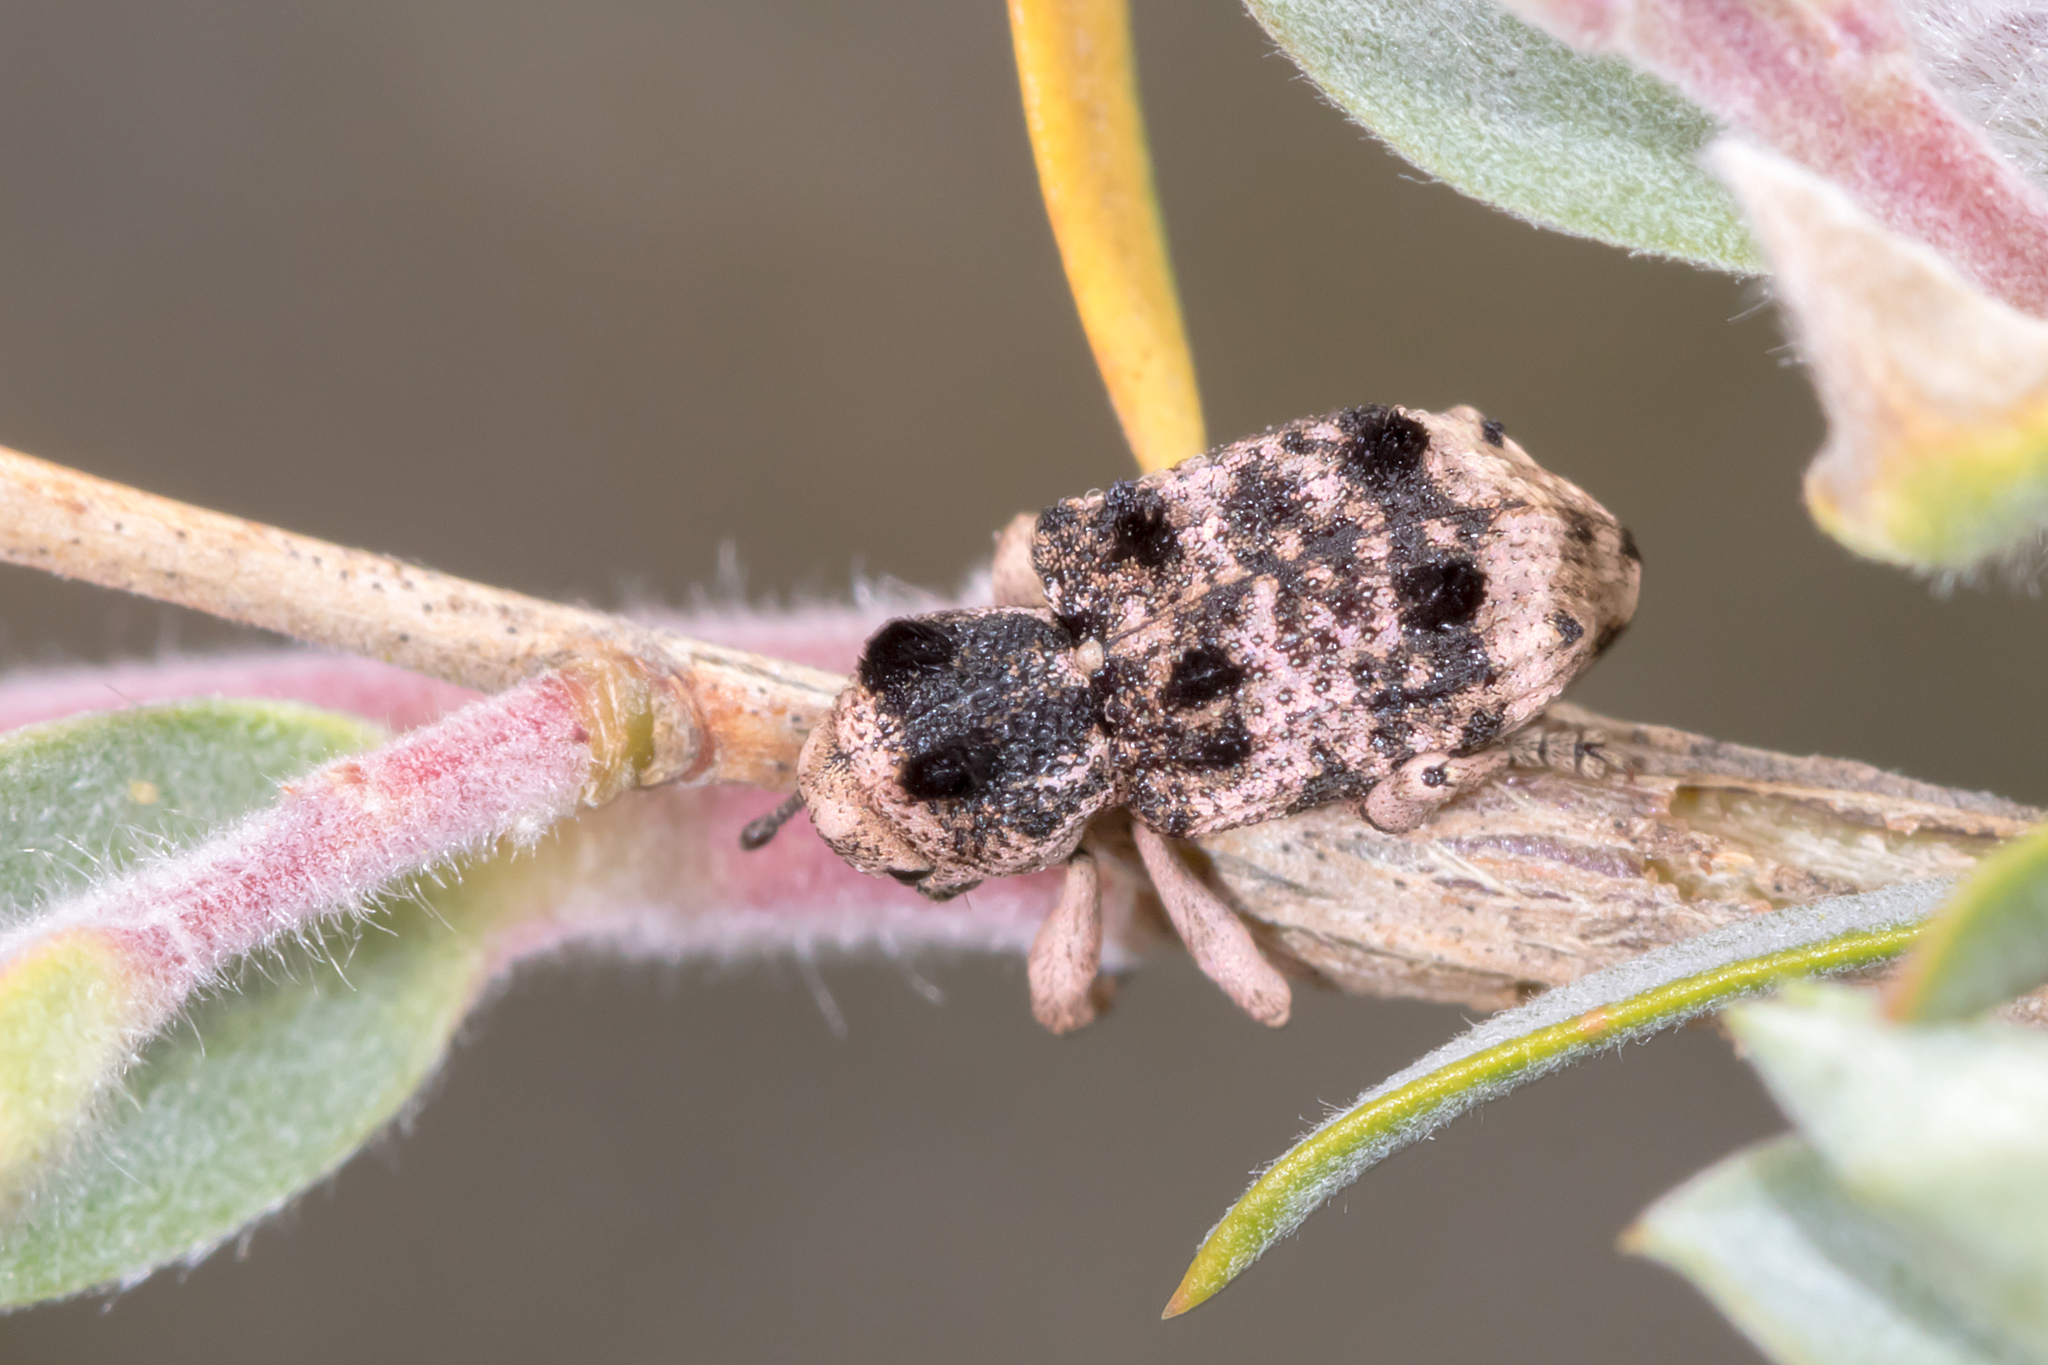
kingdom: Animalia
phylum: Arthropoda
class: Insecta
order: Coleoptera
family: Curculionidae
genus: Aades
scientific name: Aades cultratus
